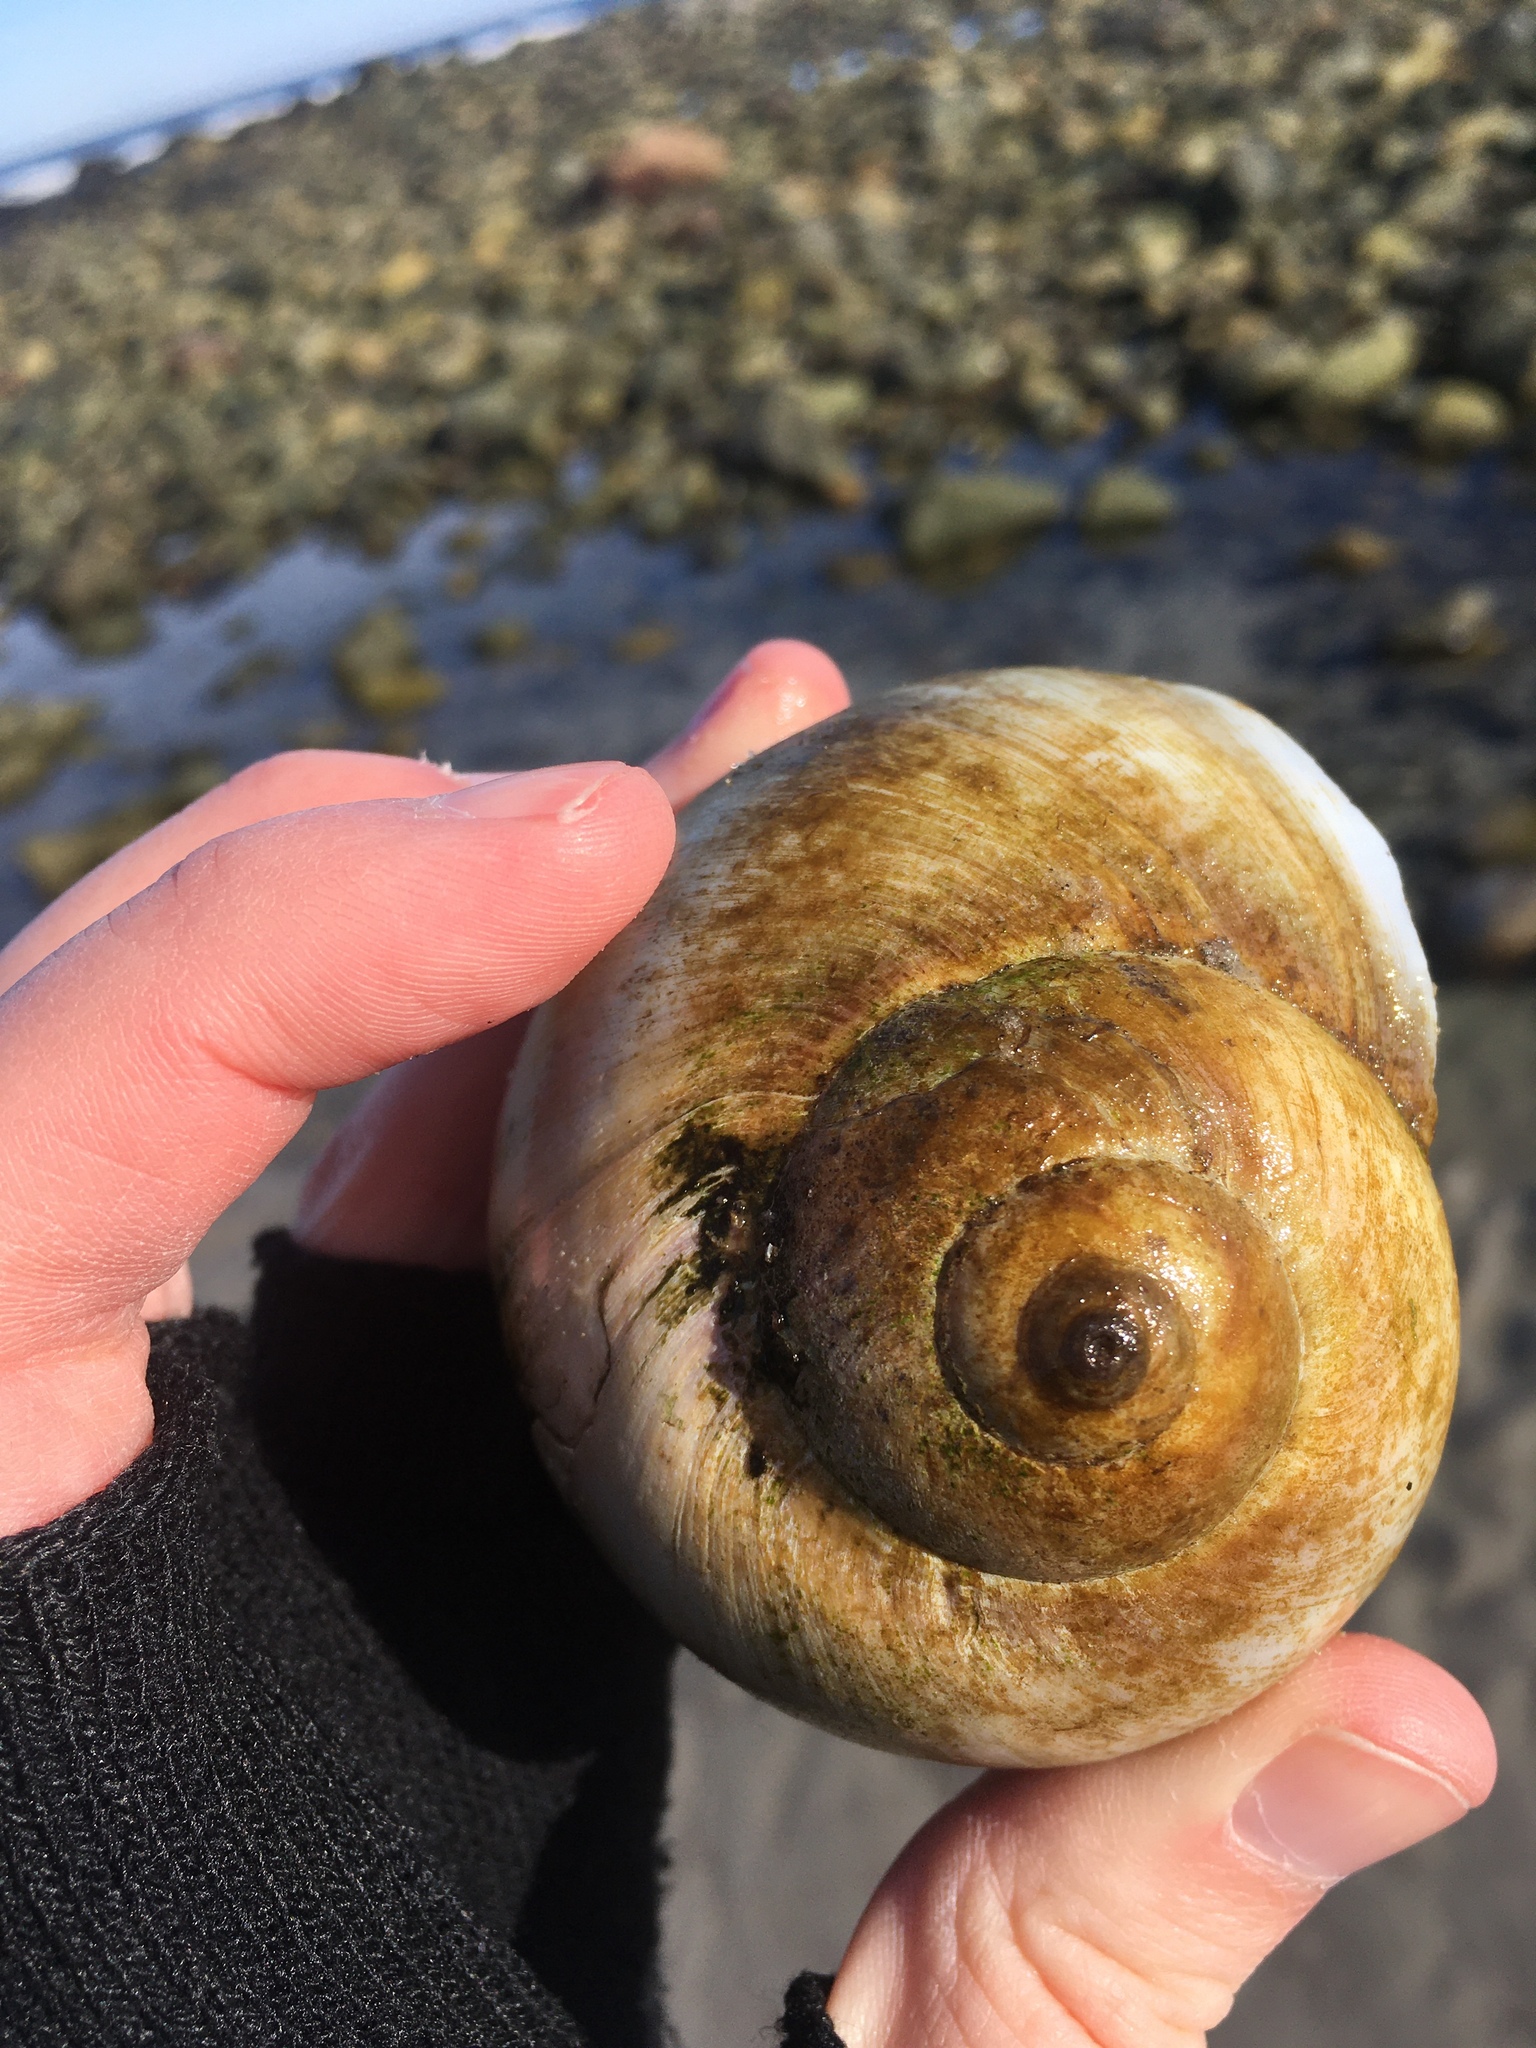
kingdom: Animalia
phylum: Mollusca
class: Gastropoda
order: Littorinimorpha
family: Naticidae
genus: Euspira
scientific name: Euspira heros
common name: Common northern moonsnail
